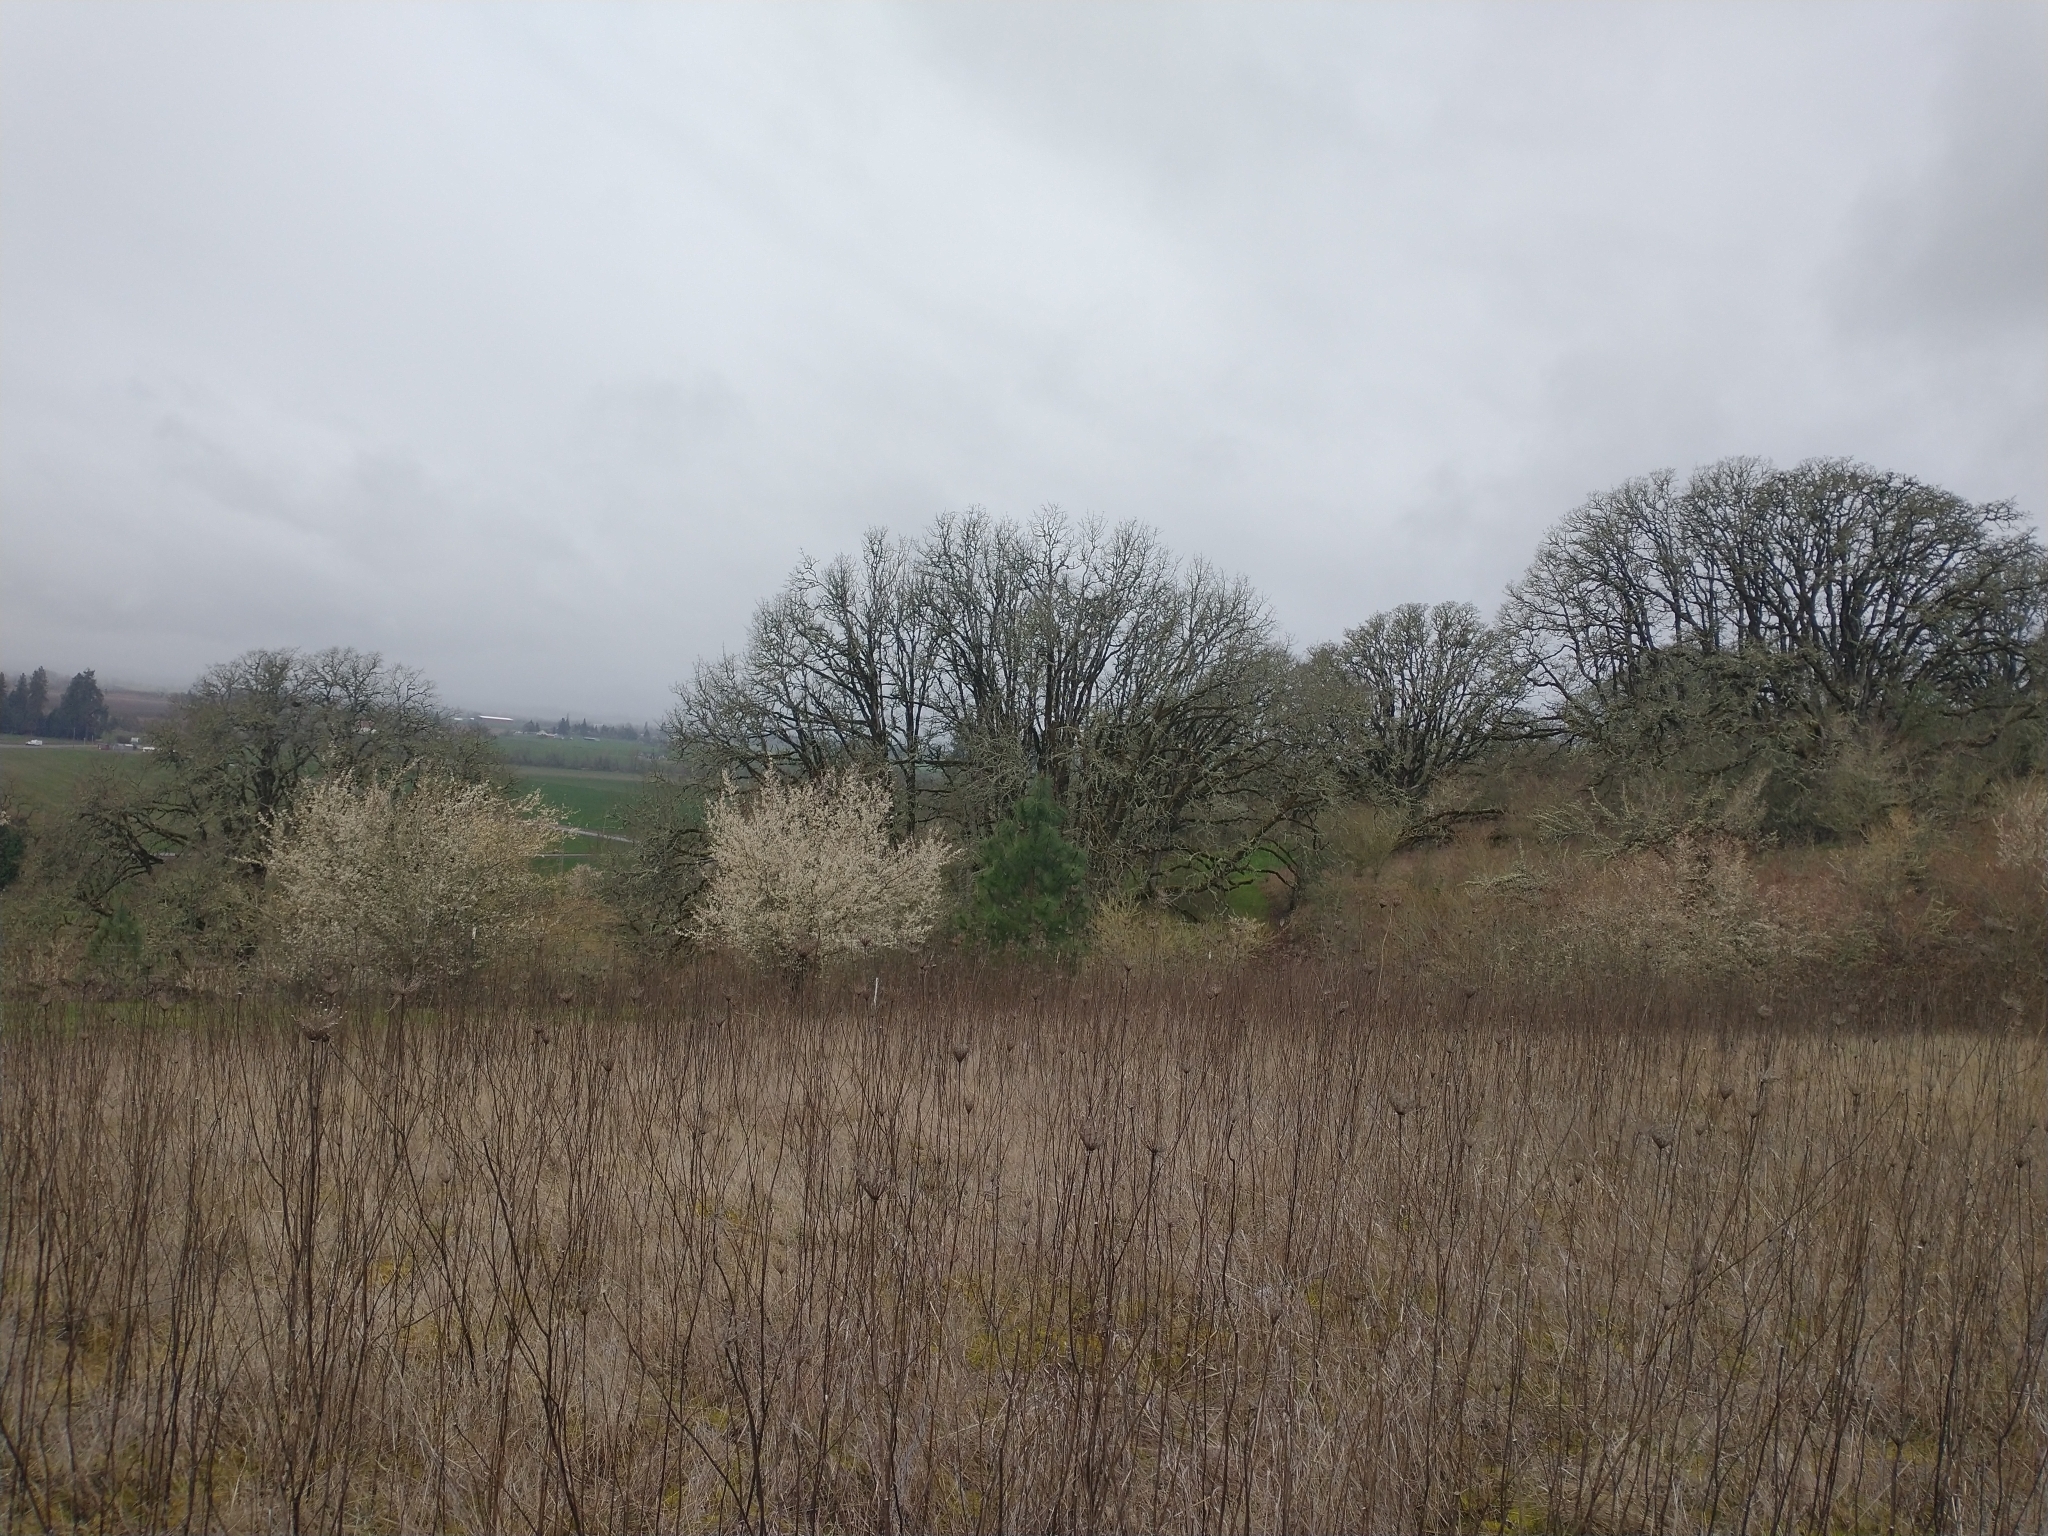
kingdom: Plantae
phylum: Tracheophyta
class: Magnoliopsida
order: Fagales
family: Fagaceae
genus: Quercus
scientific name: Quercus garryana
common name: Garry oak
